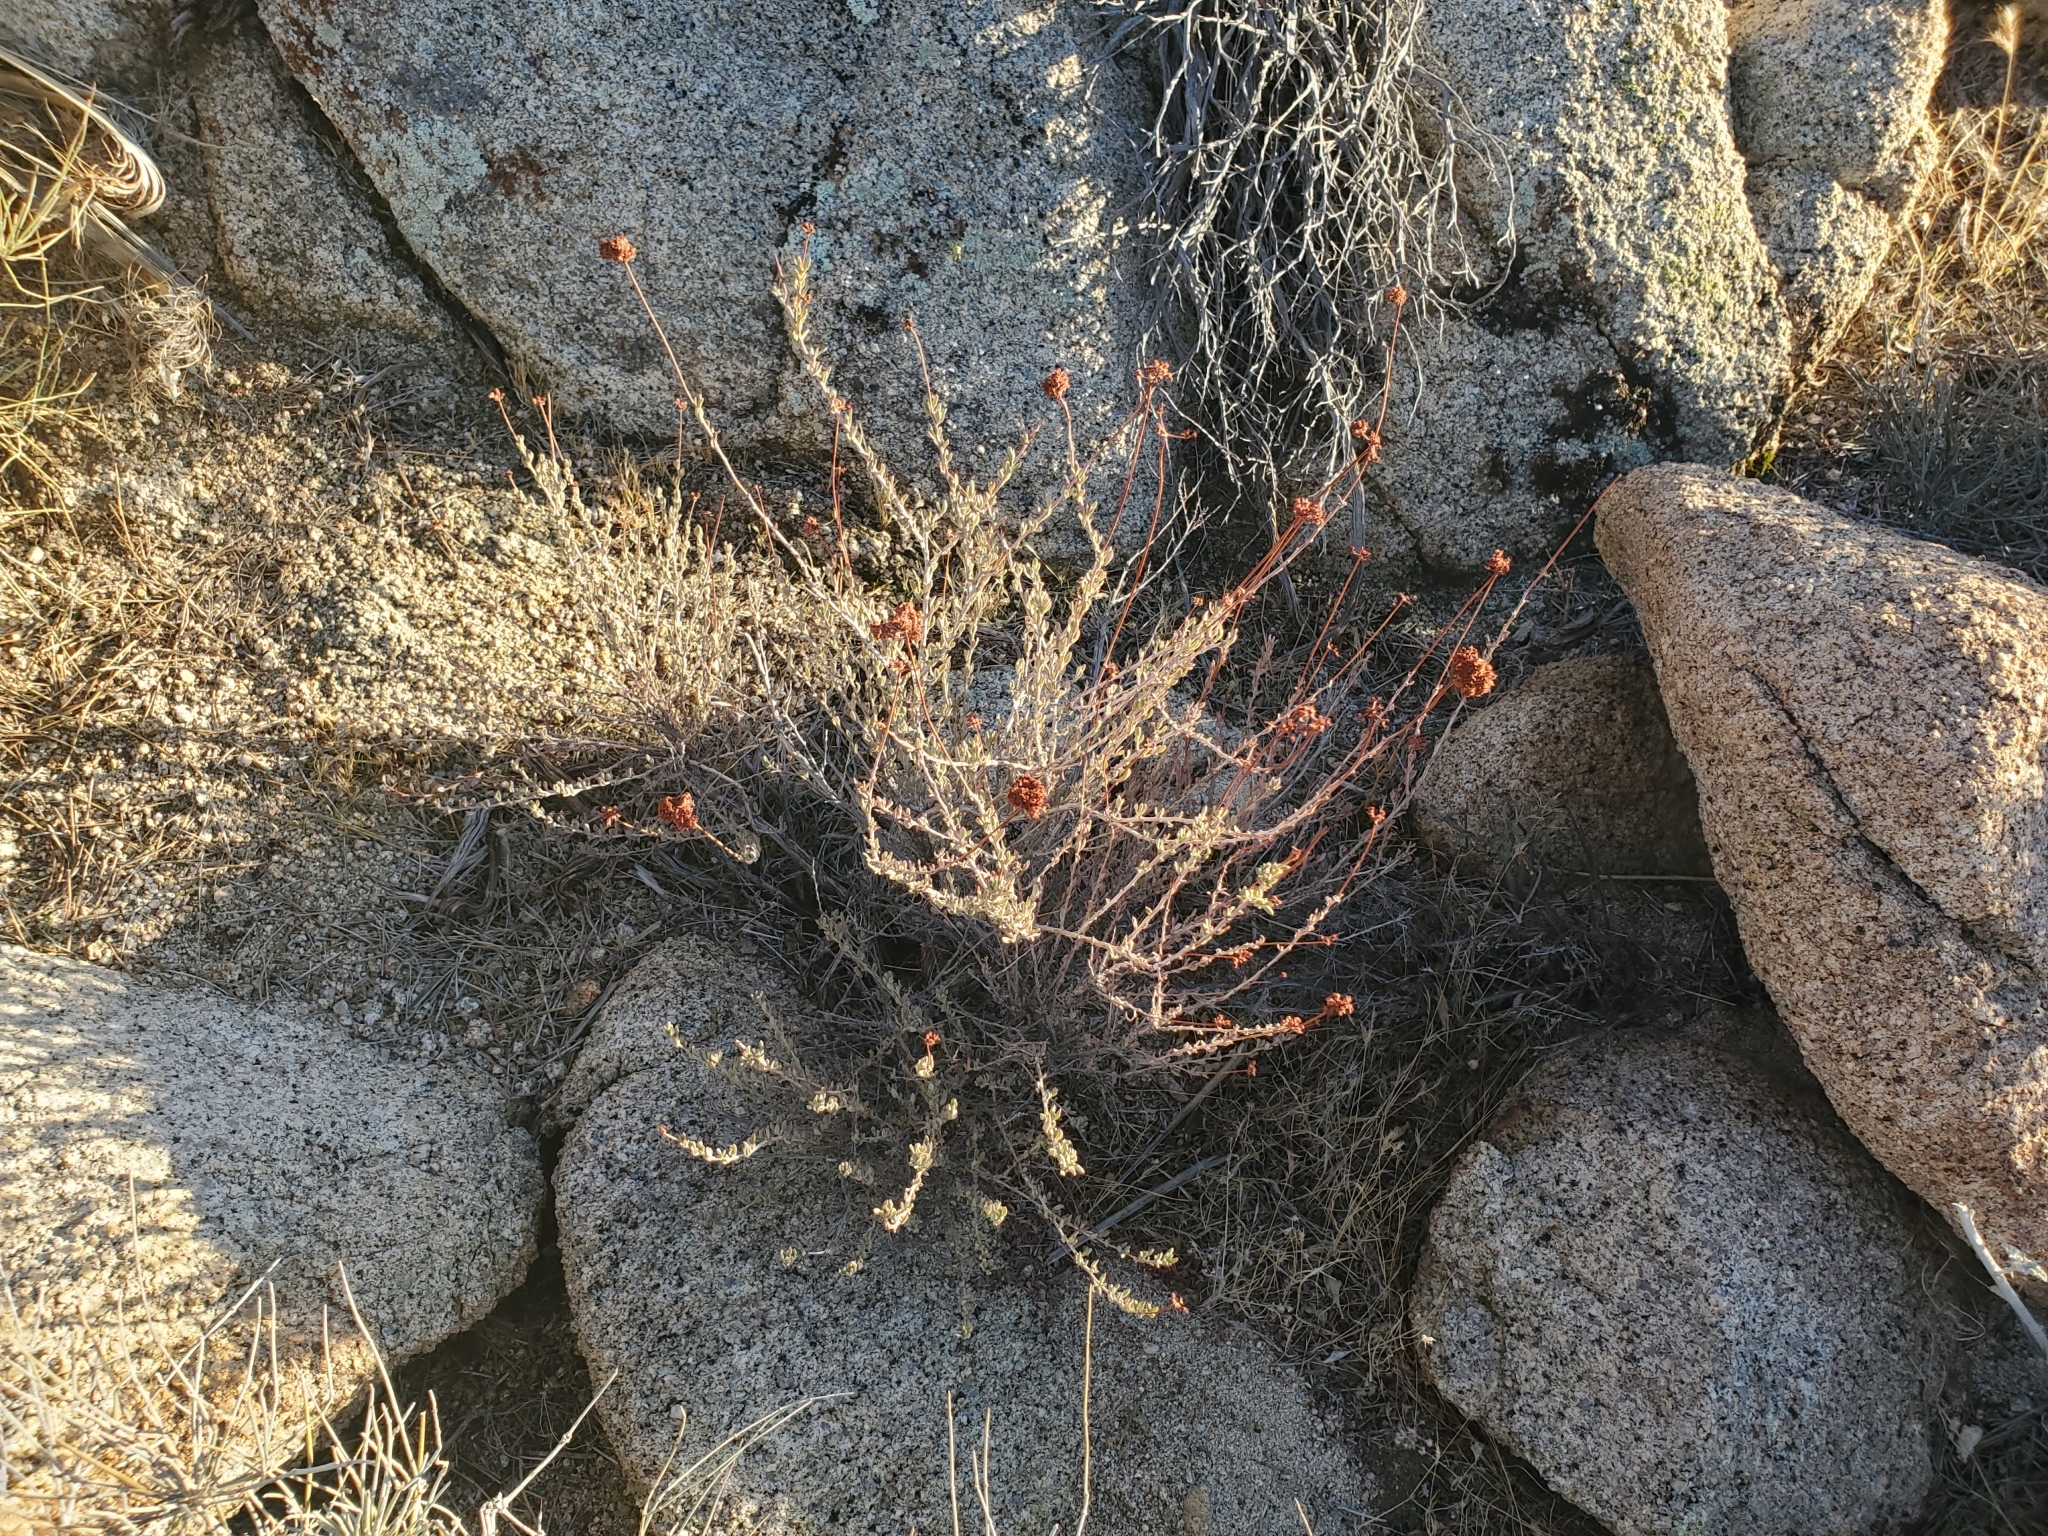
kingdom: Plantae
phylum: Tracheophyta
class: Magnoliopsida
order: Caryophyllales
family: Polygonaceae
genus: Eriogonum
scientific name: Eriogonum fasciculatum
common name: California wild buckwheat
